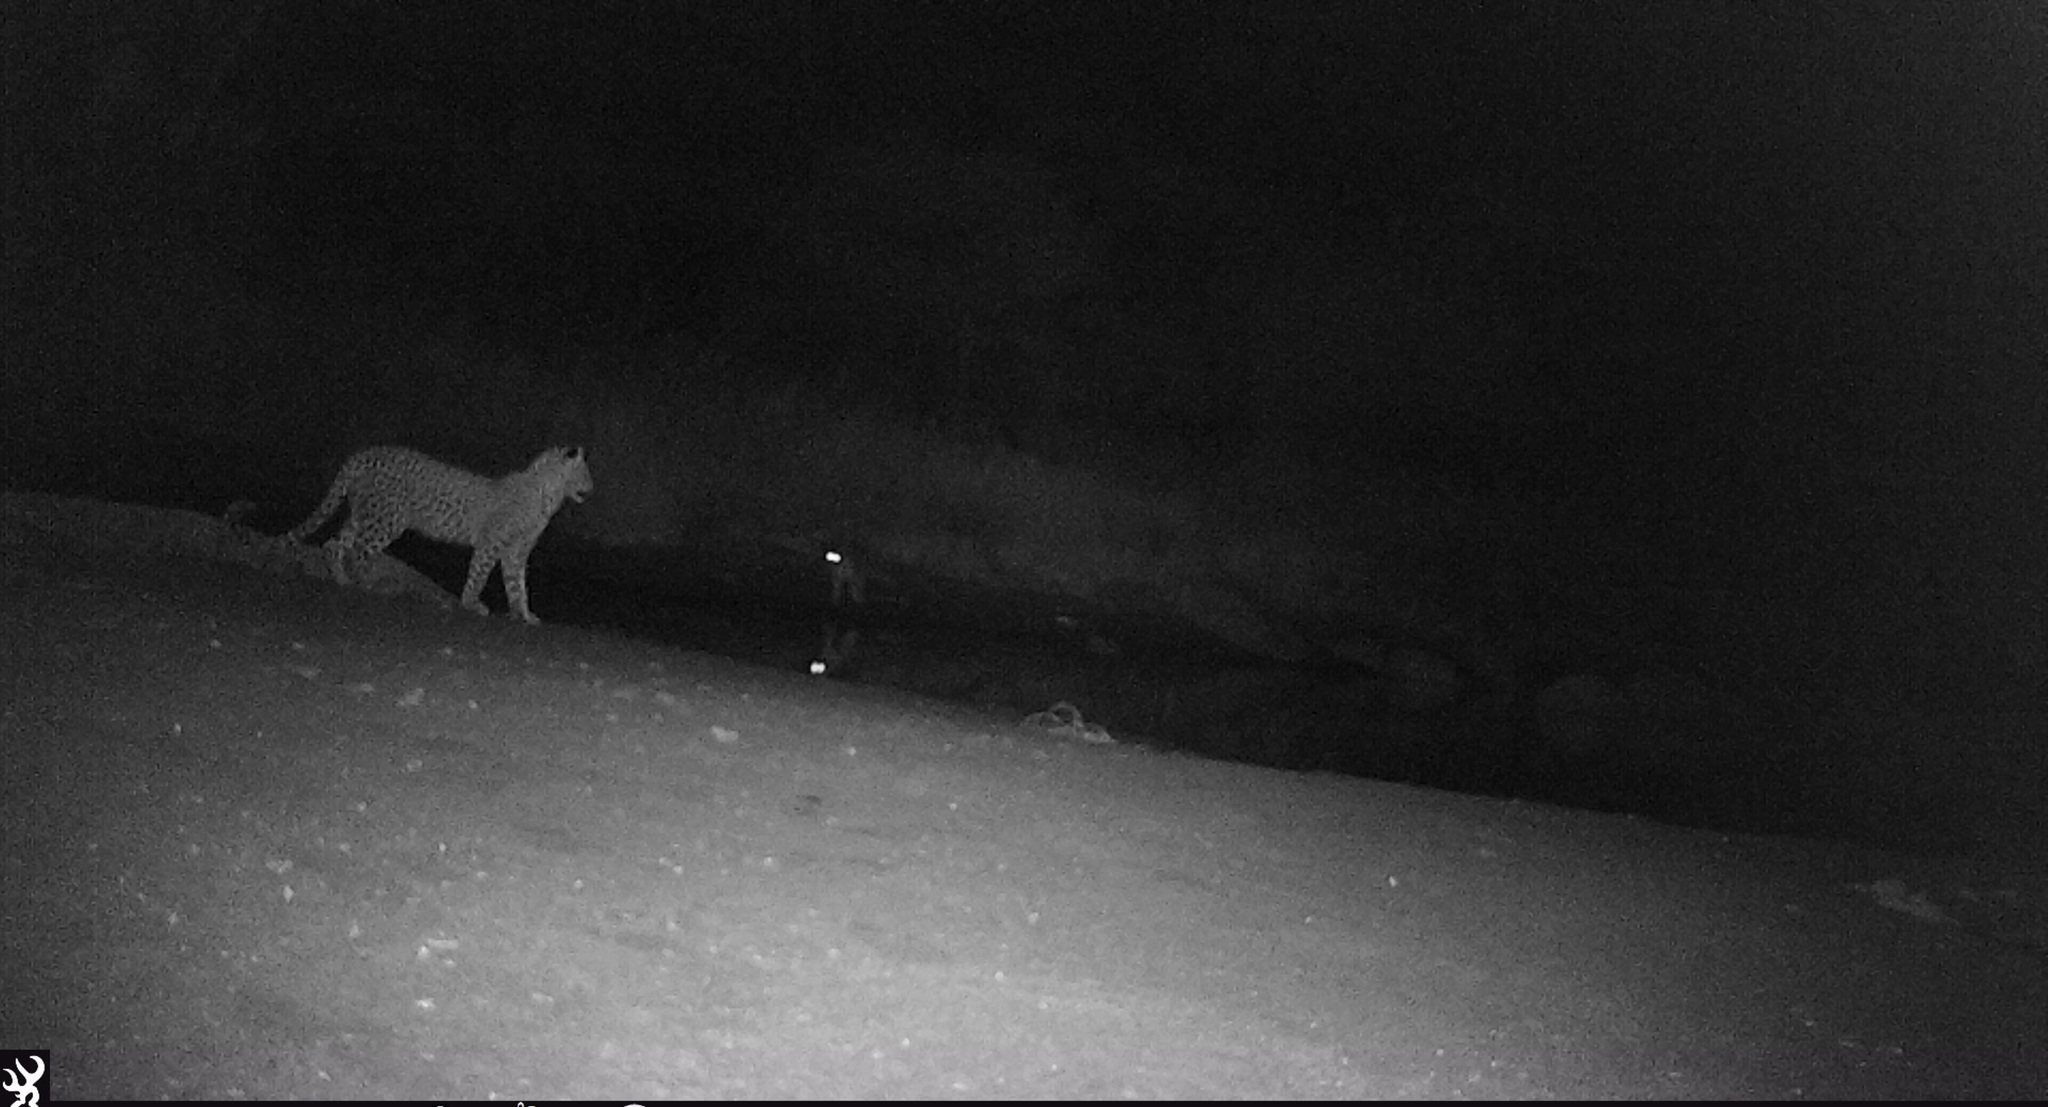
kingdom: Animalia
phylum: Chordata
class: Mammalia
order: Carnivora
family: Felidae
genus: Panthera
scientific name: Panthera pardus
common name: Leopard
